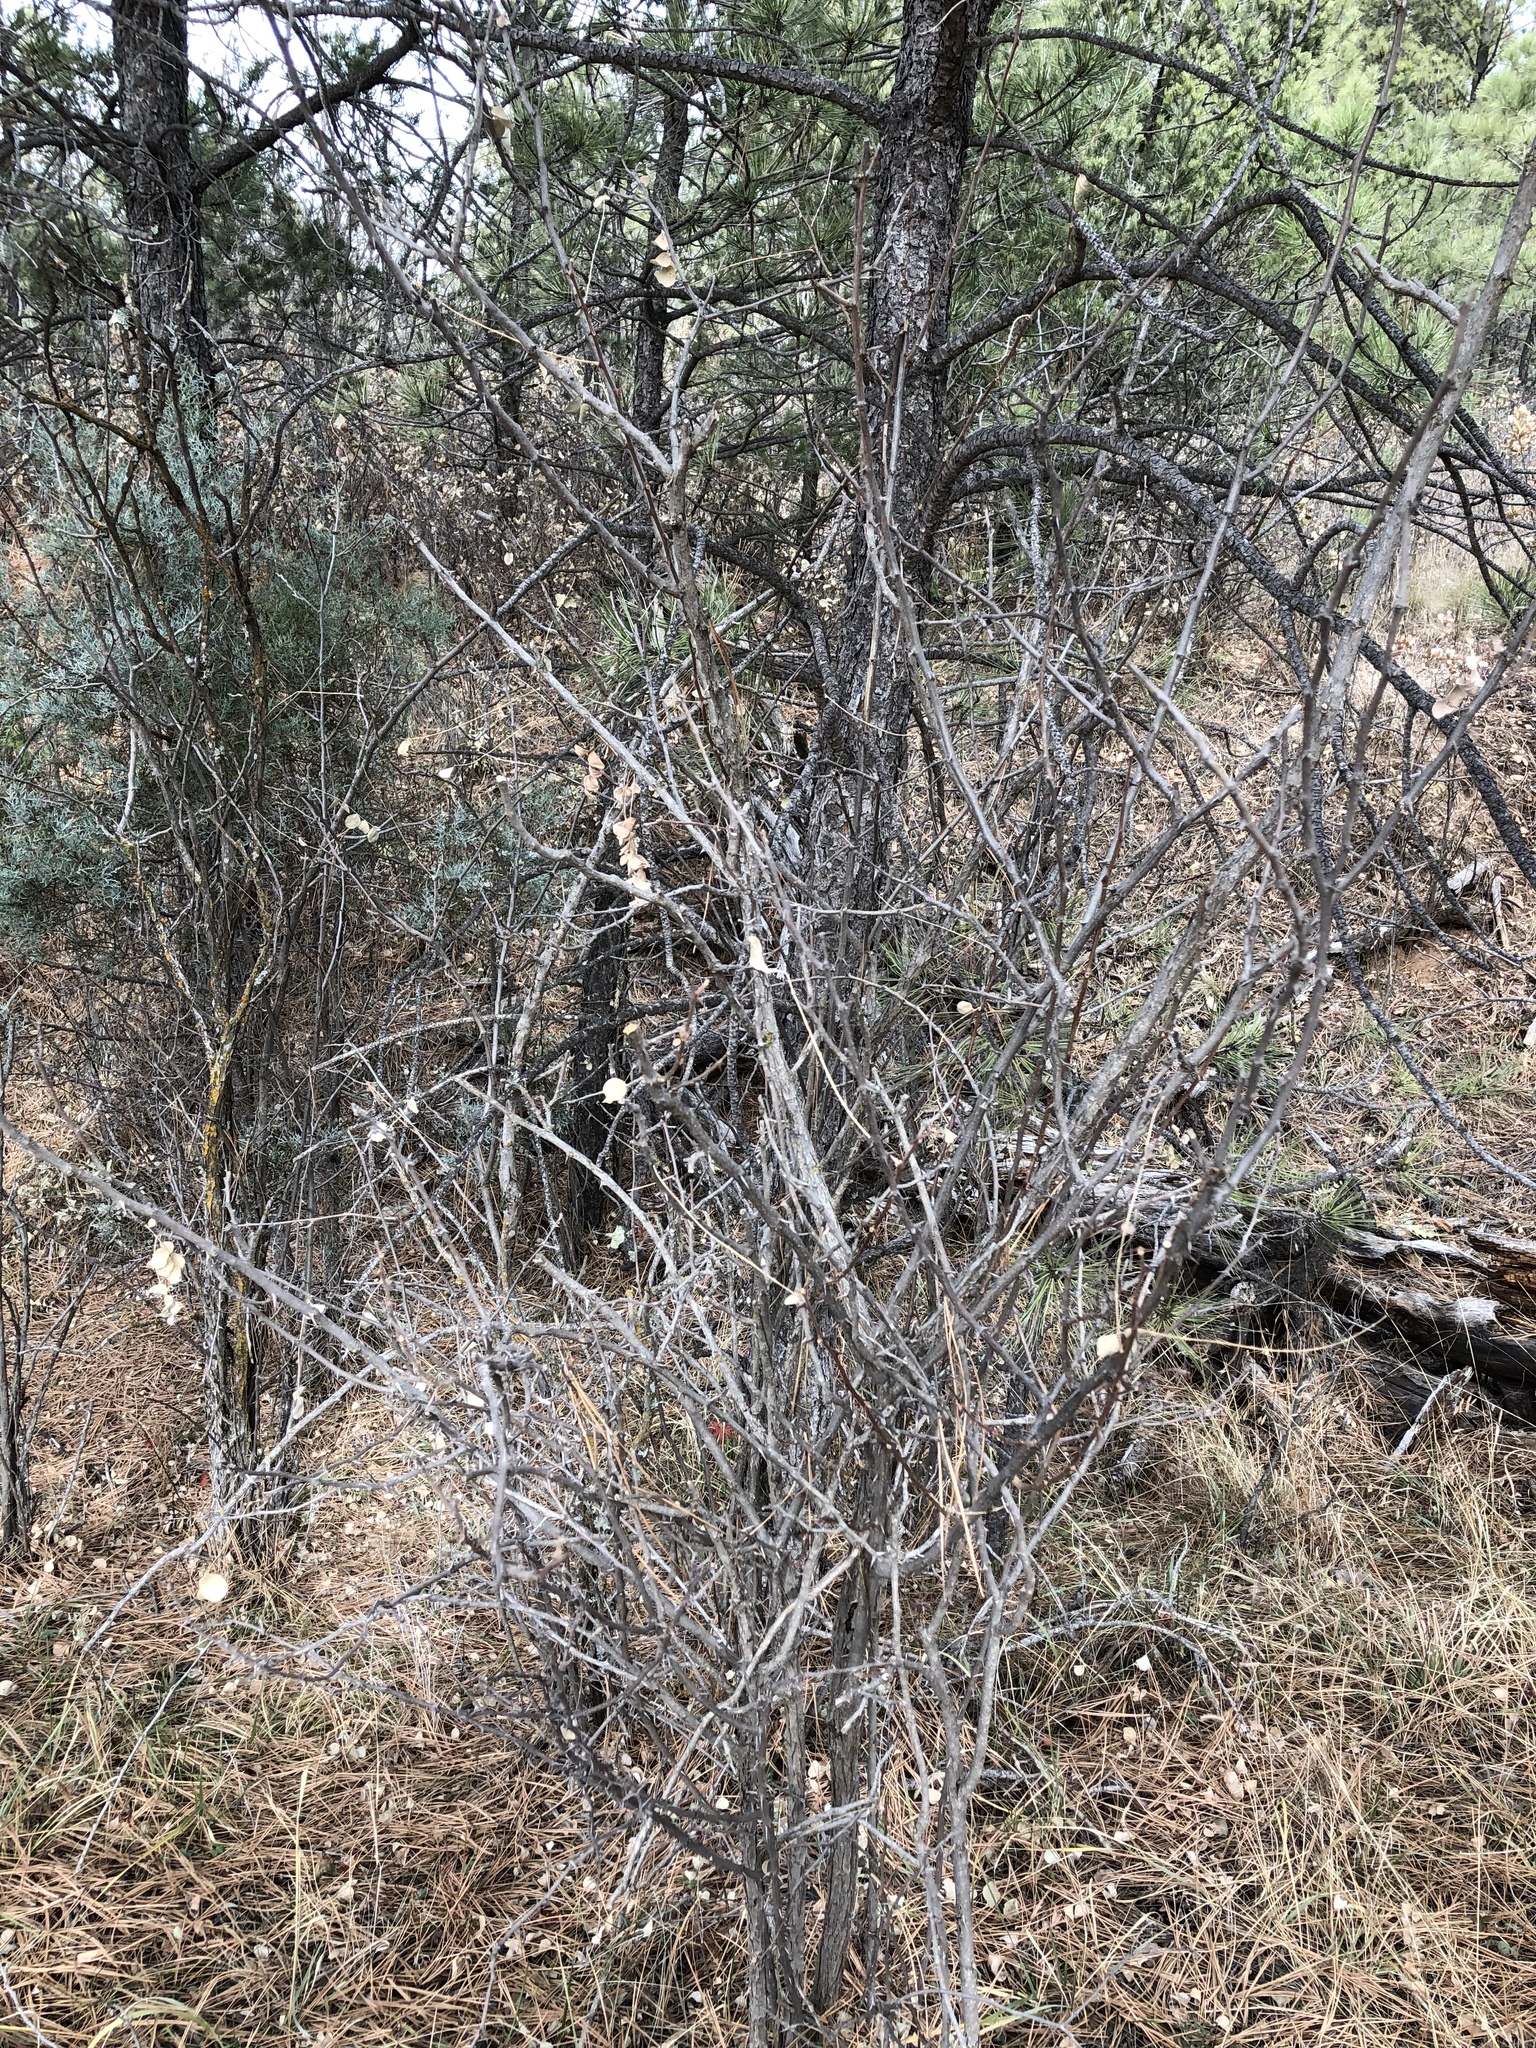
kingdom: Plantae
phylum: Tracheophyta
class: Magnoliopsida
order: Fabales
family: Fabaceae
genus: Robinia
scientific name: Robinia neomexicana
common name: New mexico locust
